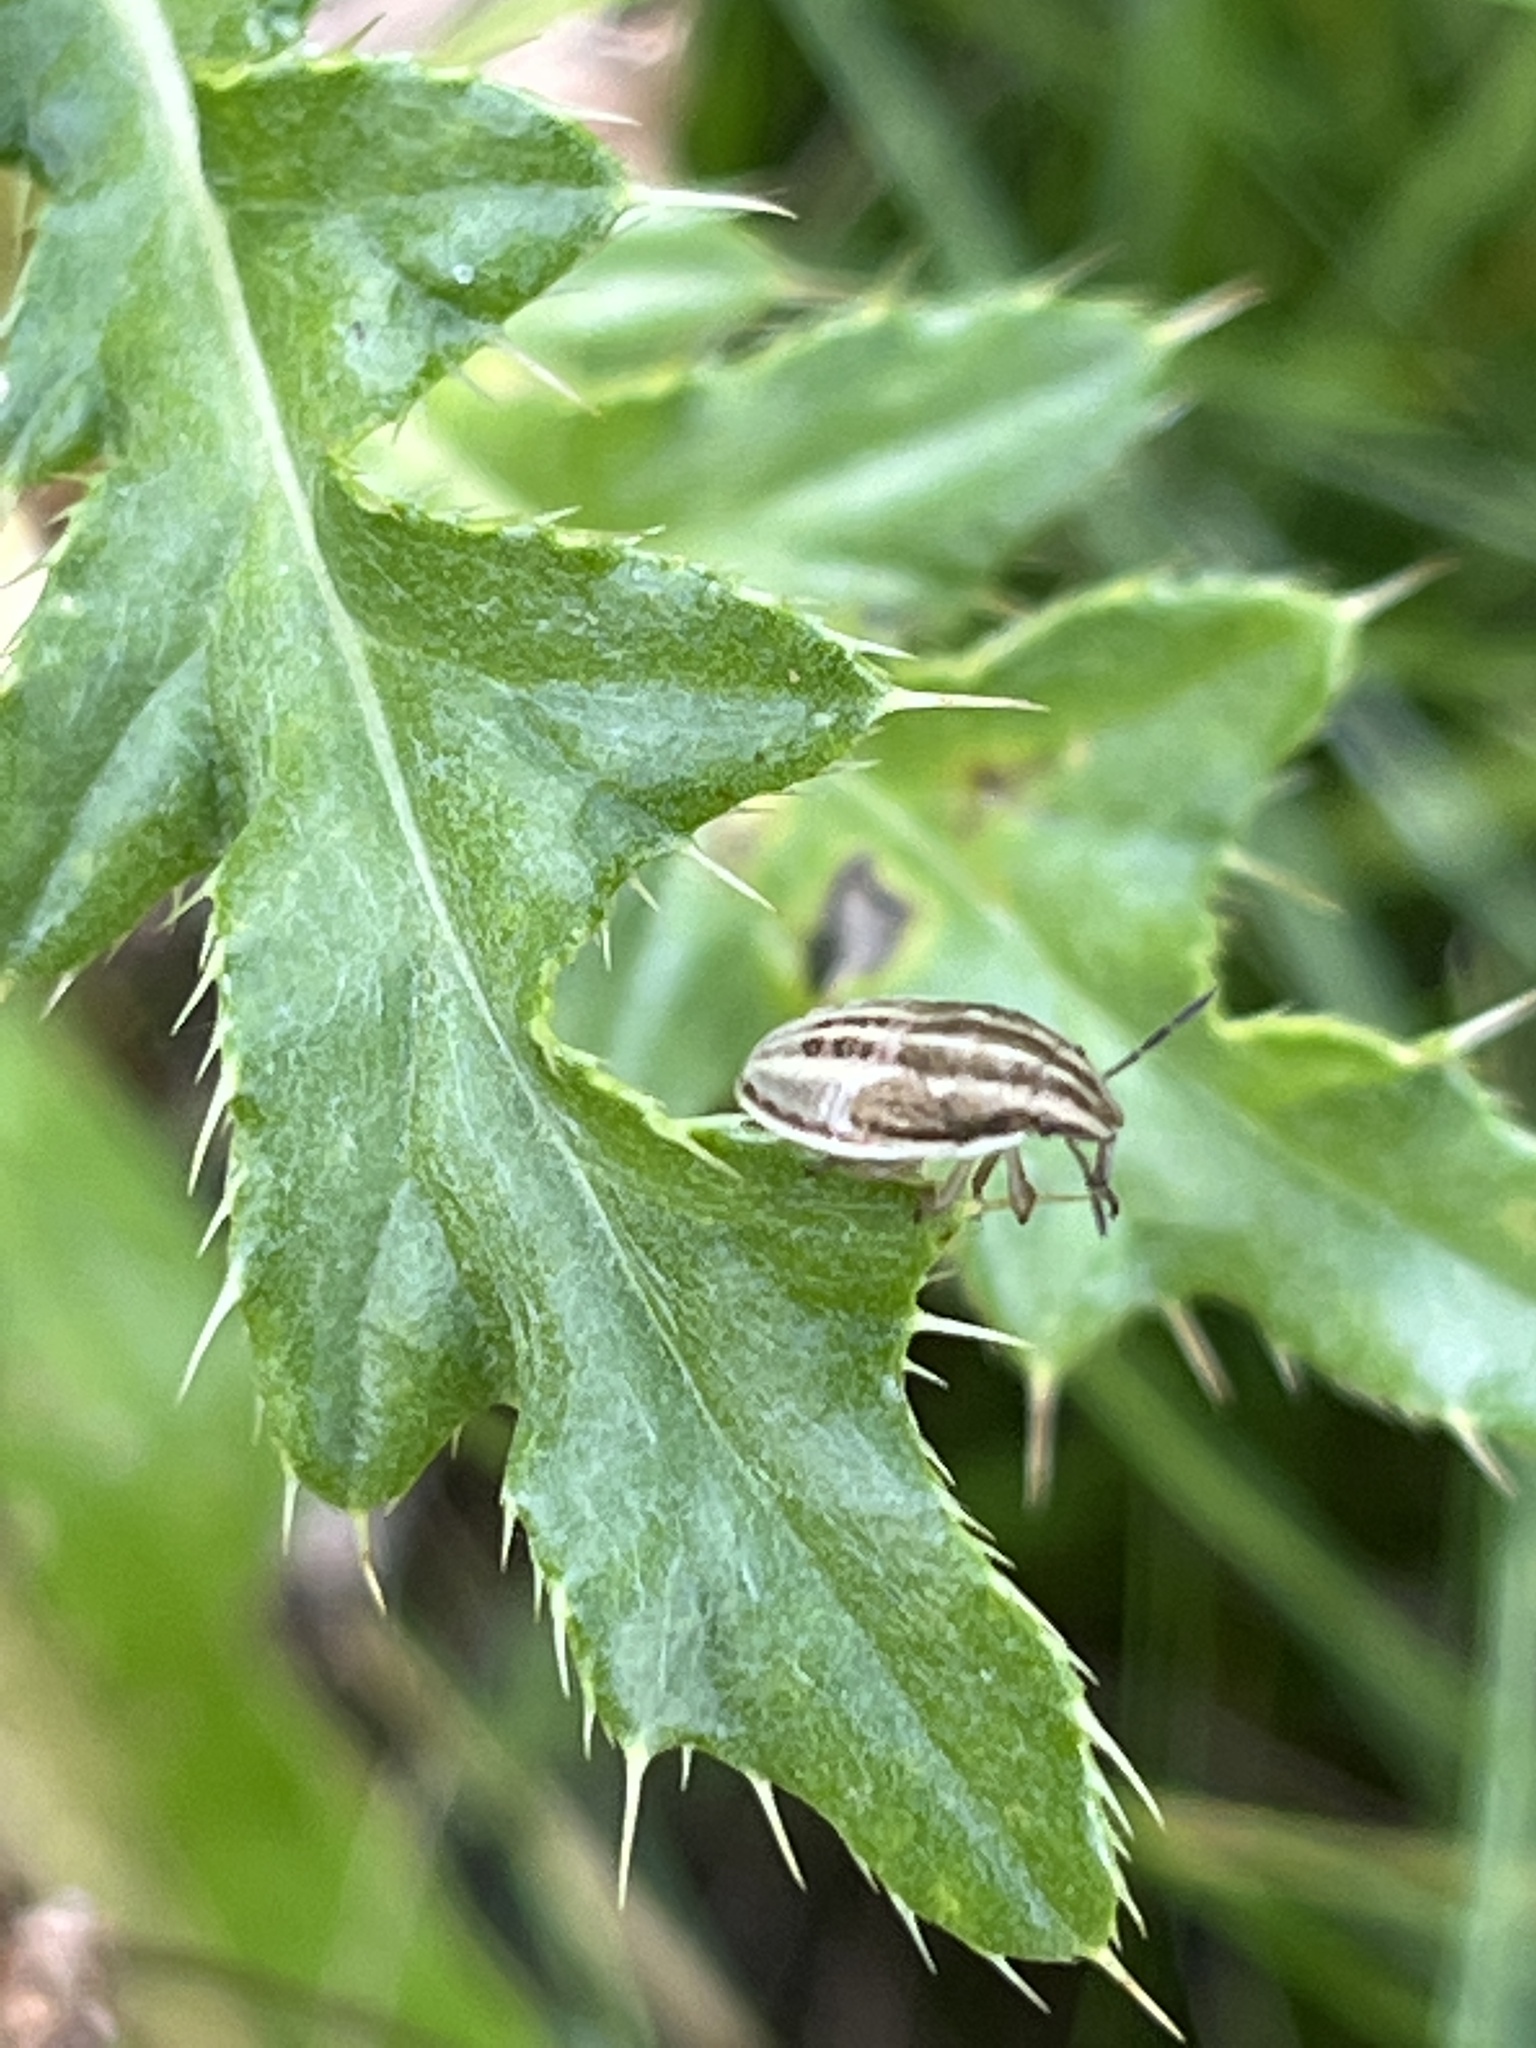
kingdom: Animalia
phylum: Arthropoda
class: Insecta
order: Hemiptera
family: Pentatomidae
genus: Aelia
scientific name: Aelia acuminata
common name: Bishop's mitre
